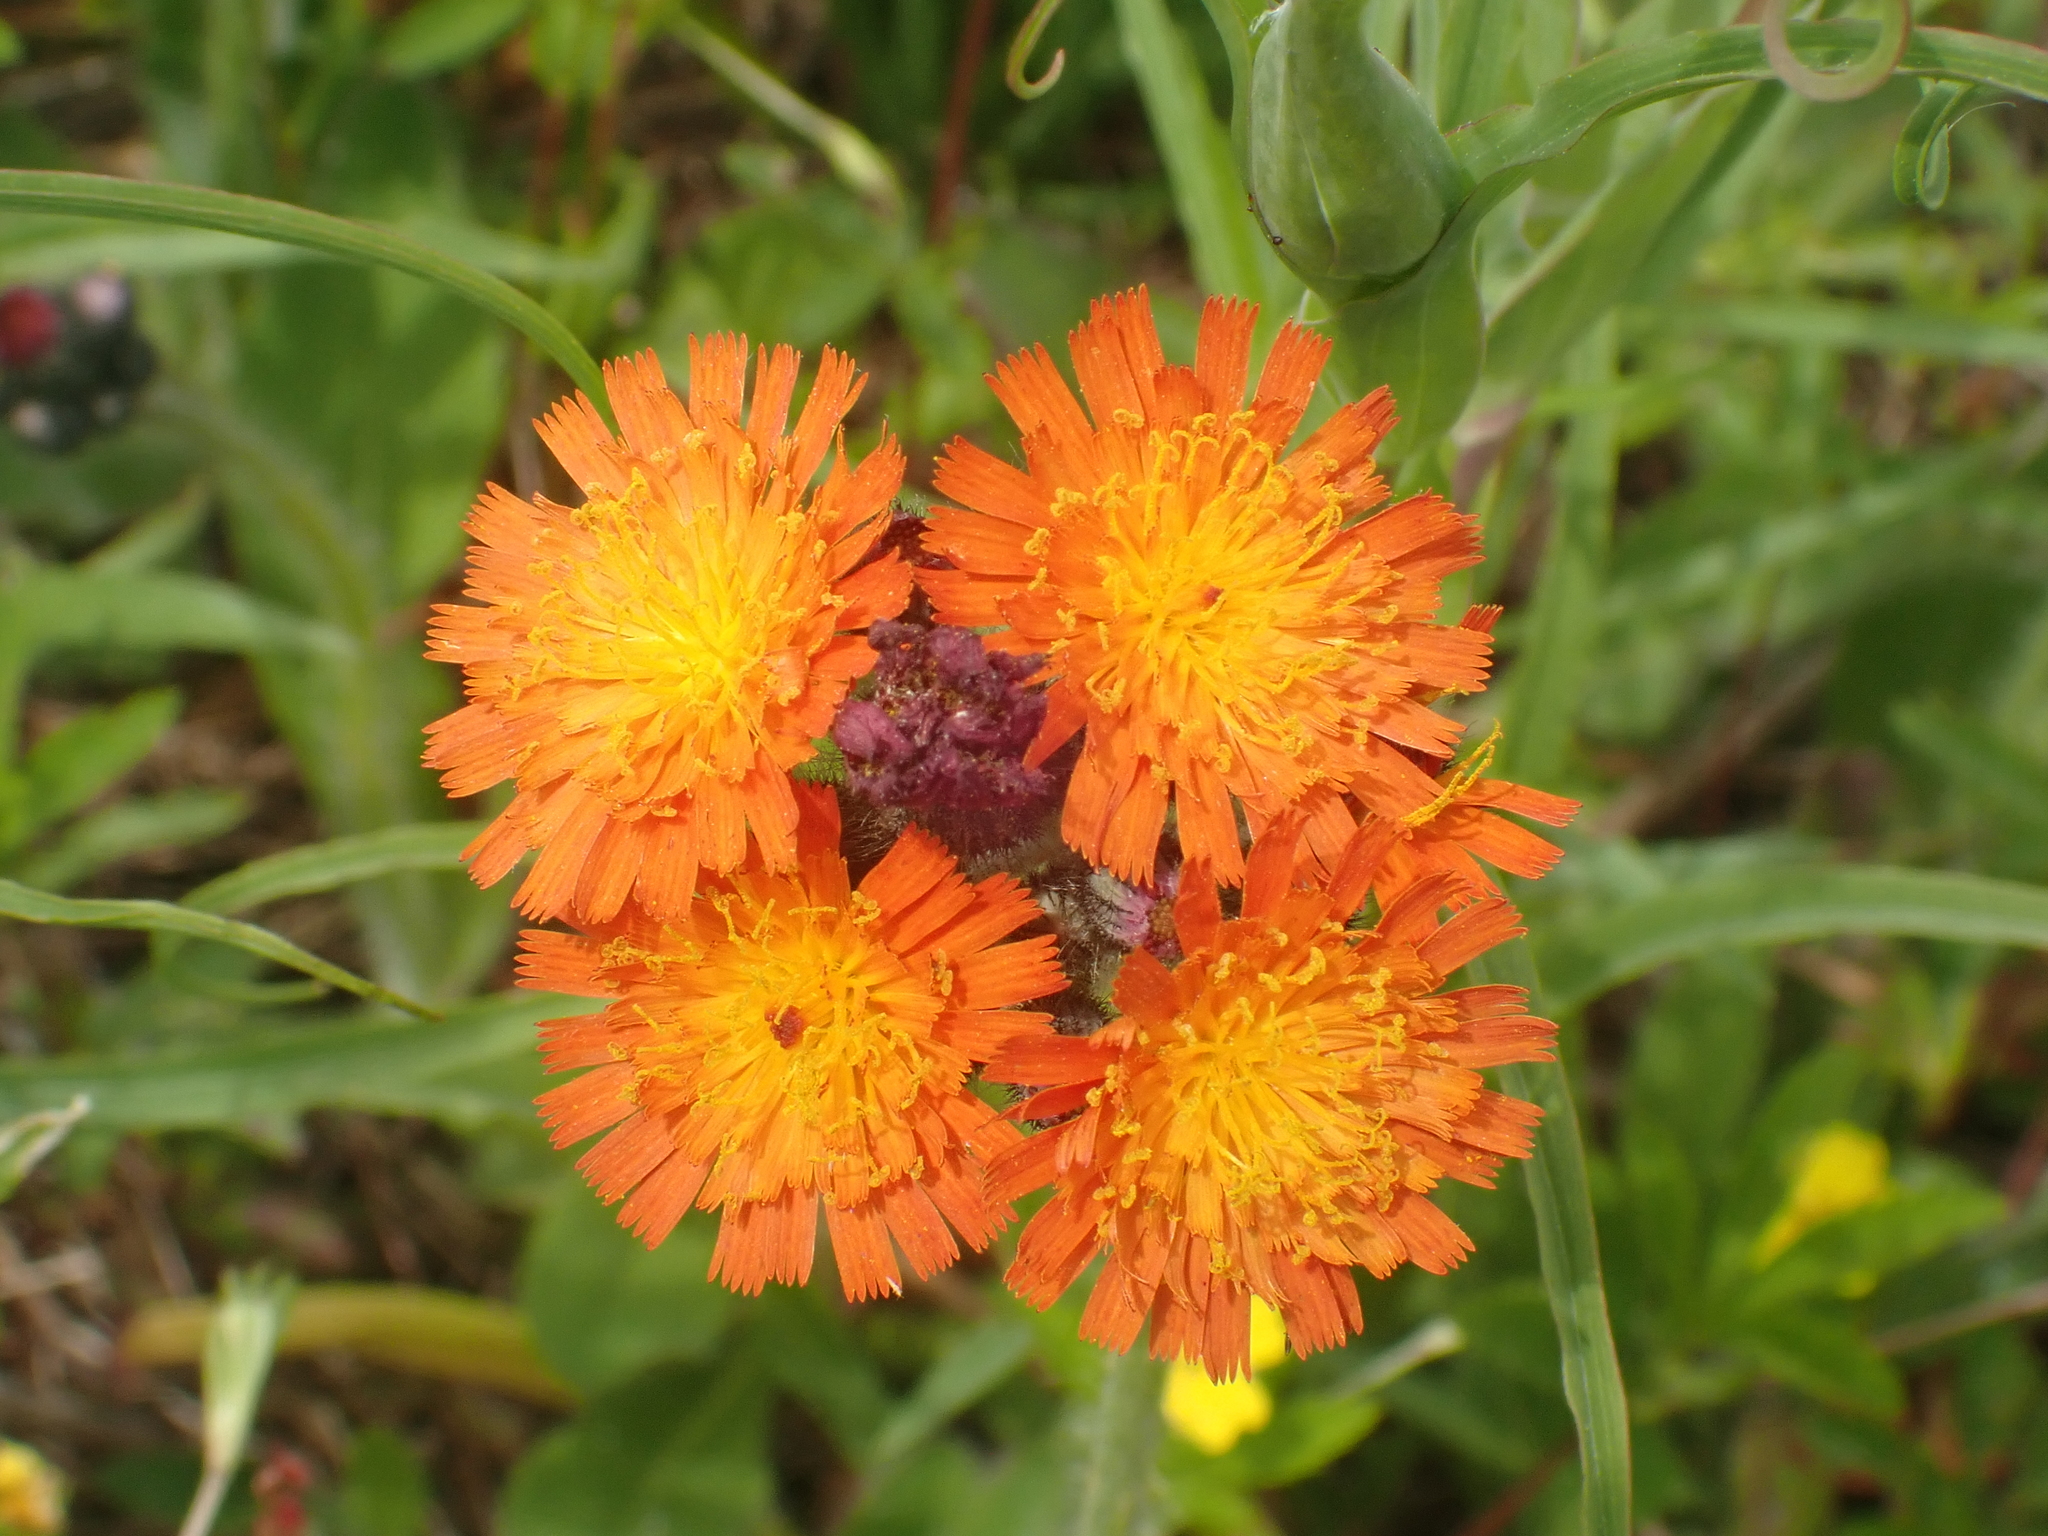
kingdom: Plantae
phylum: Tracheophyta
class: Magnoliopsida
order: Asterales
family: Asteraceae
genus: Pilosella
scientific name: Pilosella aurantiaca
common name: Fox-and-cubs
